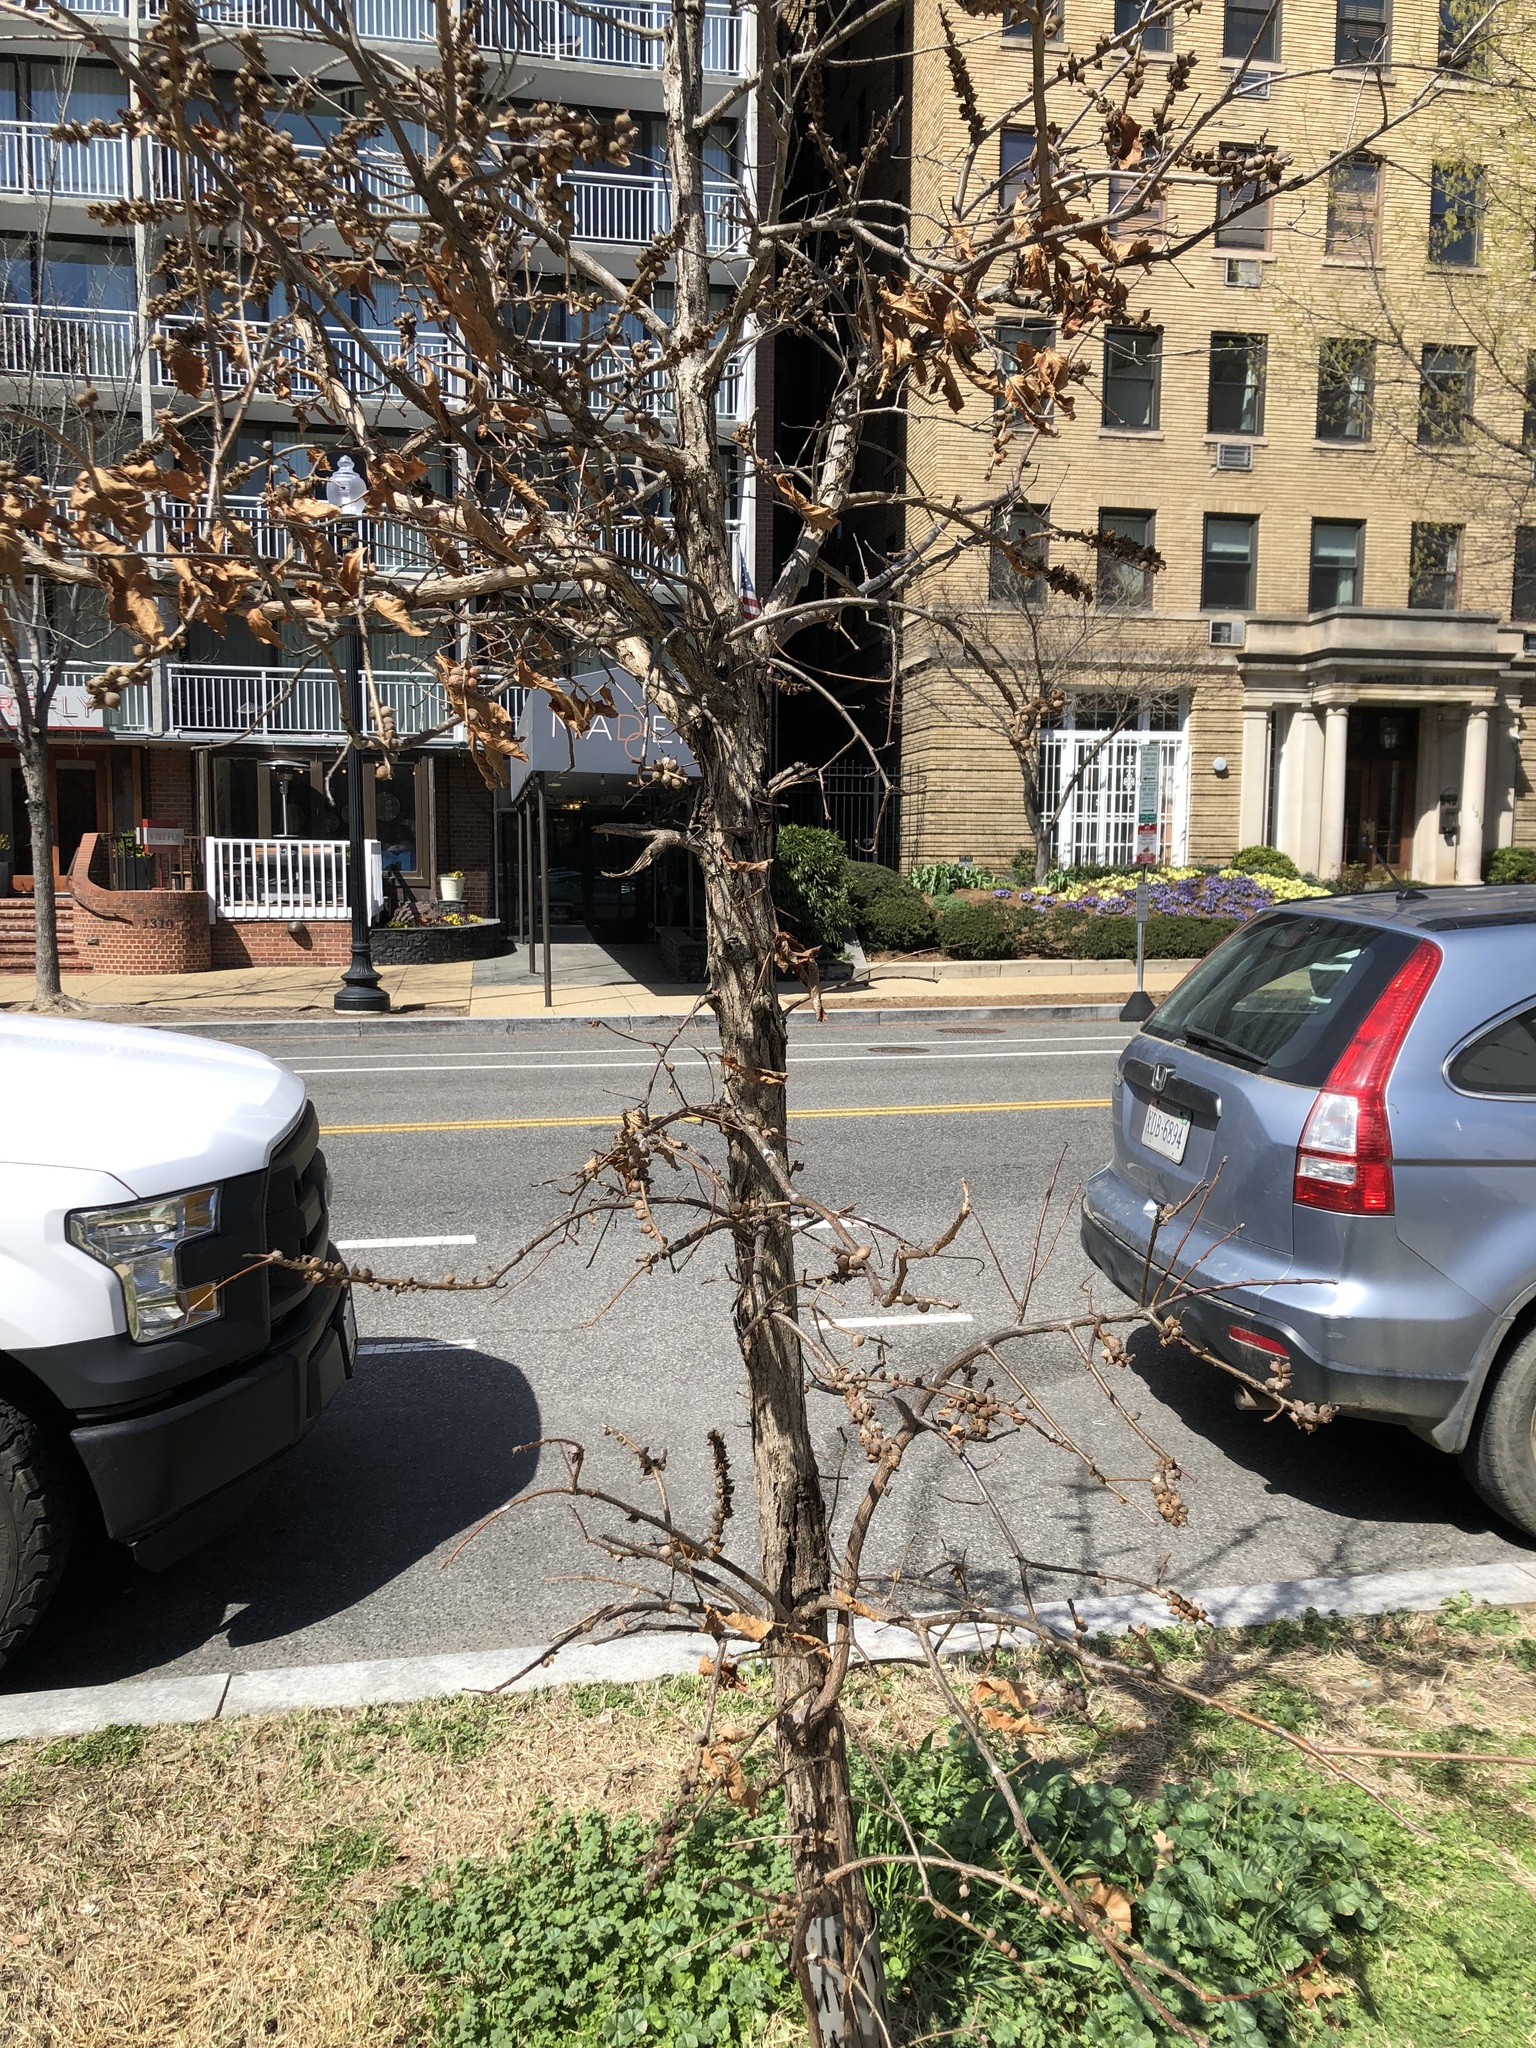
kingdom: Animalia
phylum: Arthropoda
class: Insecta
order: Hymenoptera
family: Cynipidae
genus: Disholcaspis
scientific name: Disholcaspis
